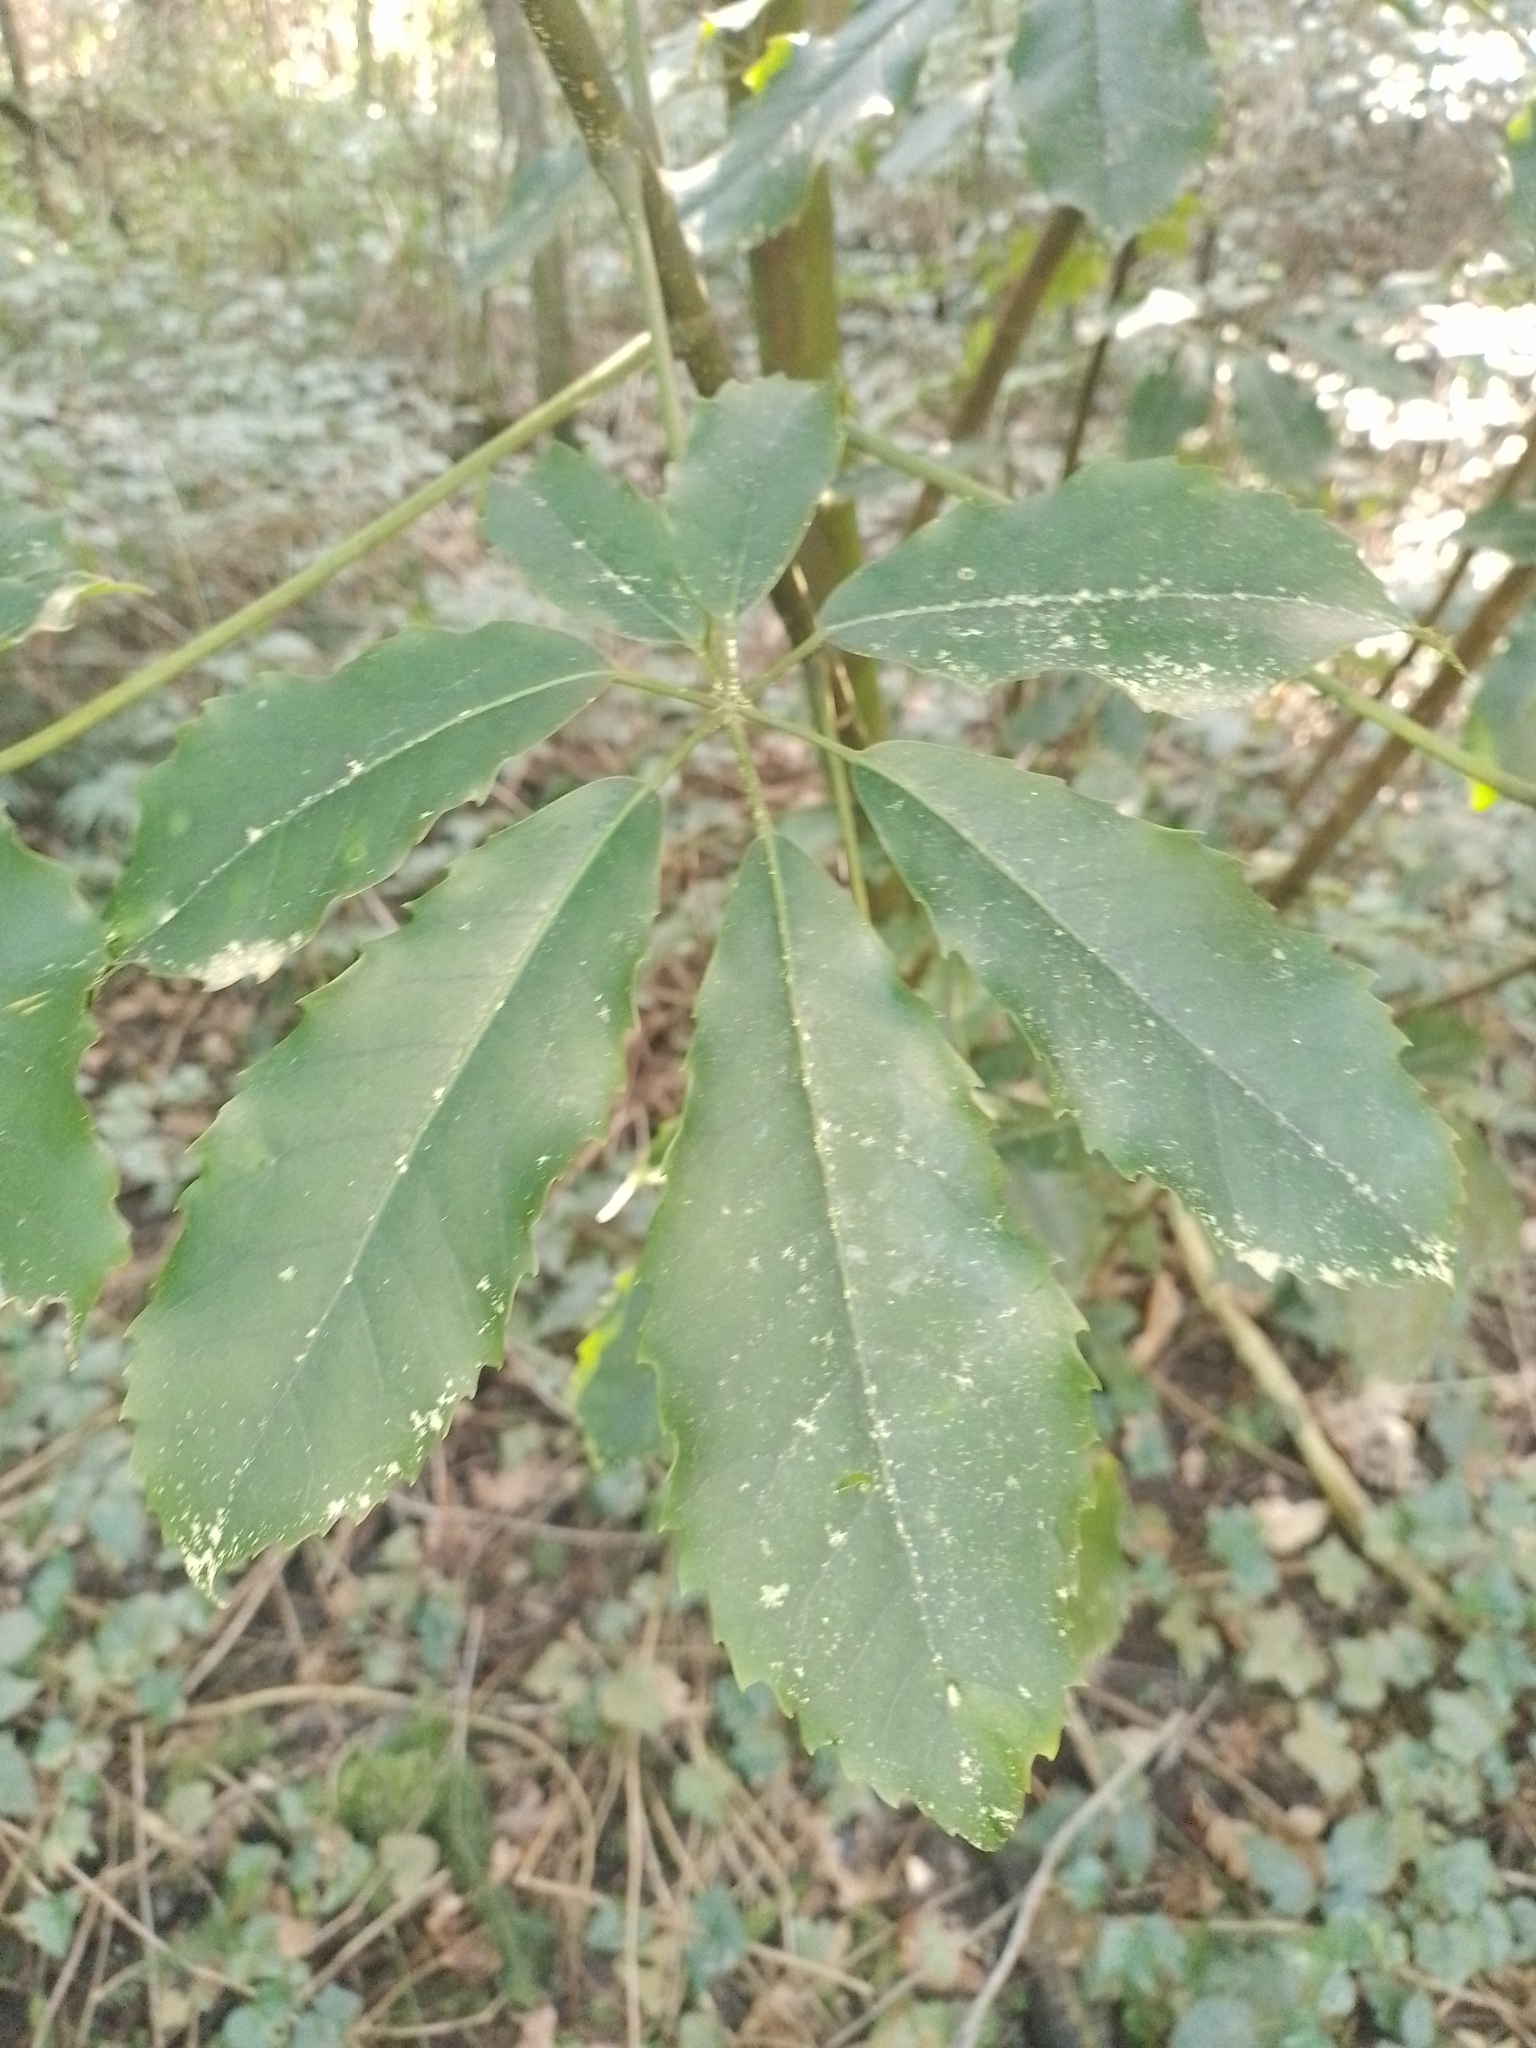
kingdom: Plantae
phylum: Tracheophyta
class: Magnoliopsida
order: Apiales
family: Araliaceae
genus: Neopanax
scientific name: Neopanax arboreus
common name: Five-fingers
